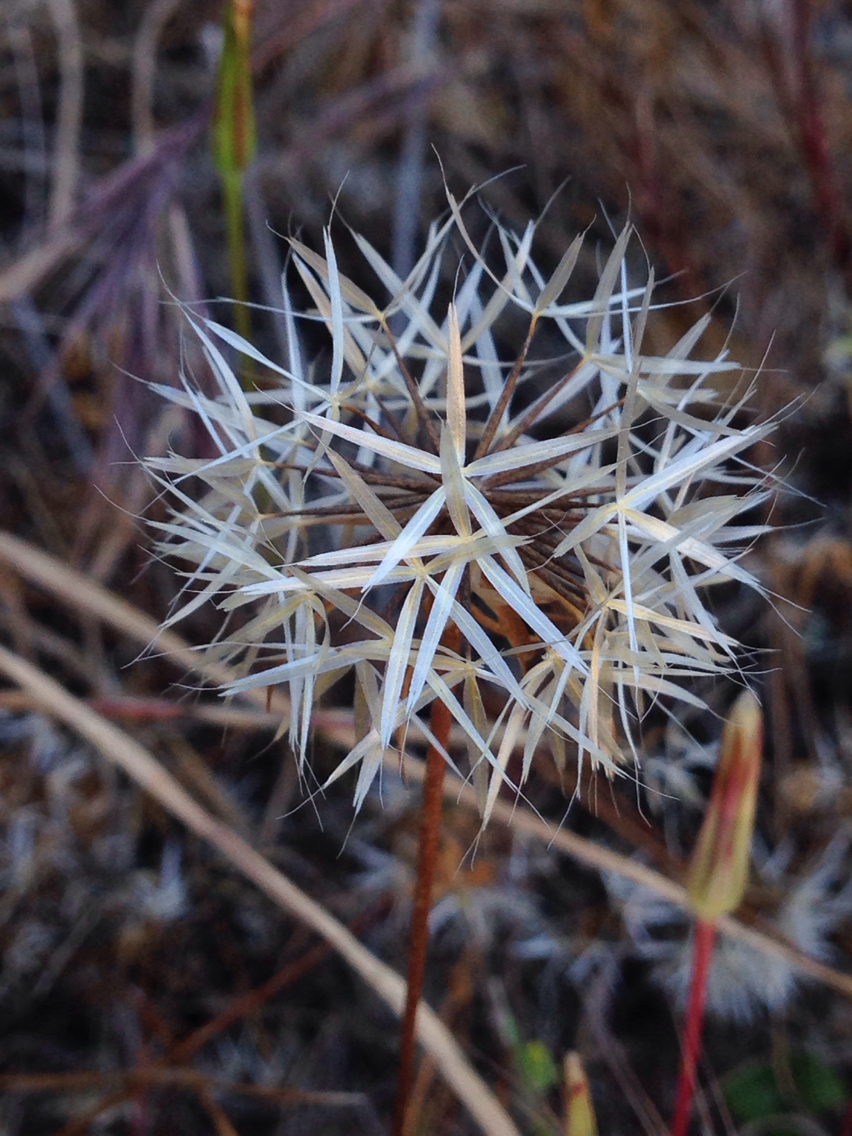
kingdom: Plantae
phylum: Tracheophyta
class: Magnoliopsida
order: Asterales
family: Asteraceae
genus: Microseris
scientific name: Microseris lindleyi
